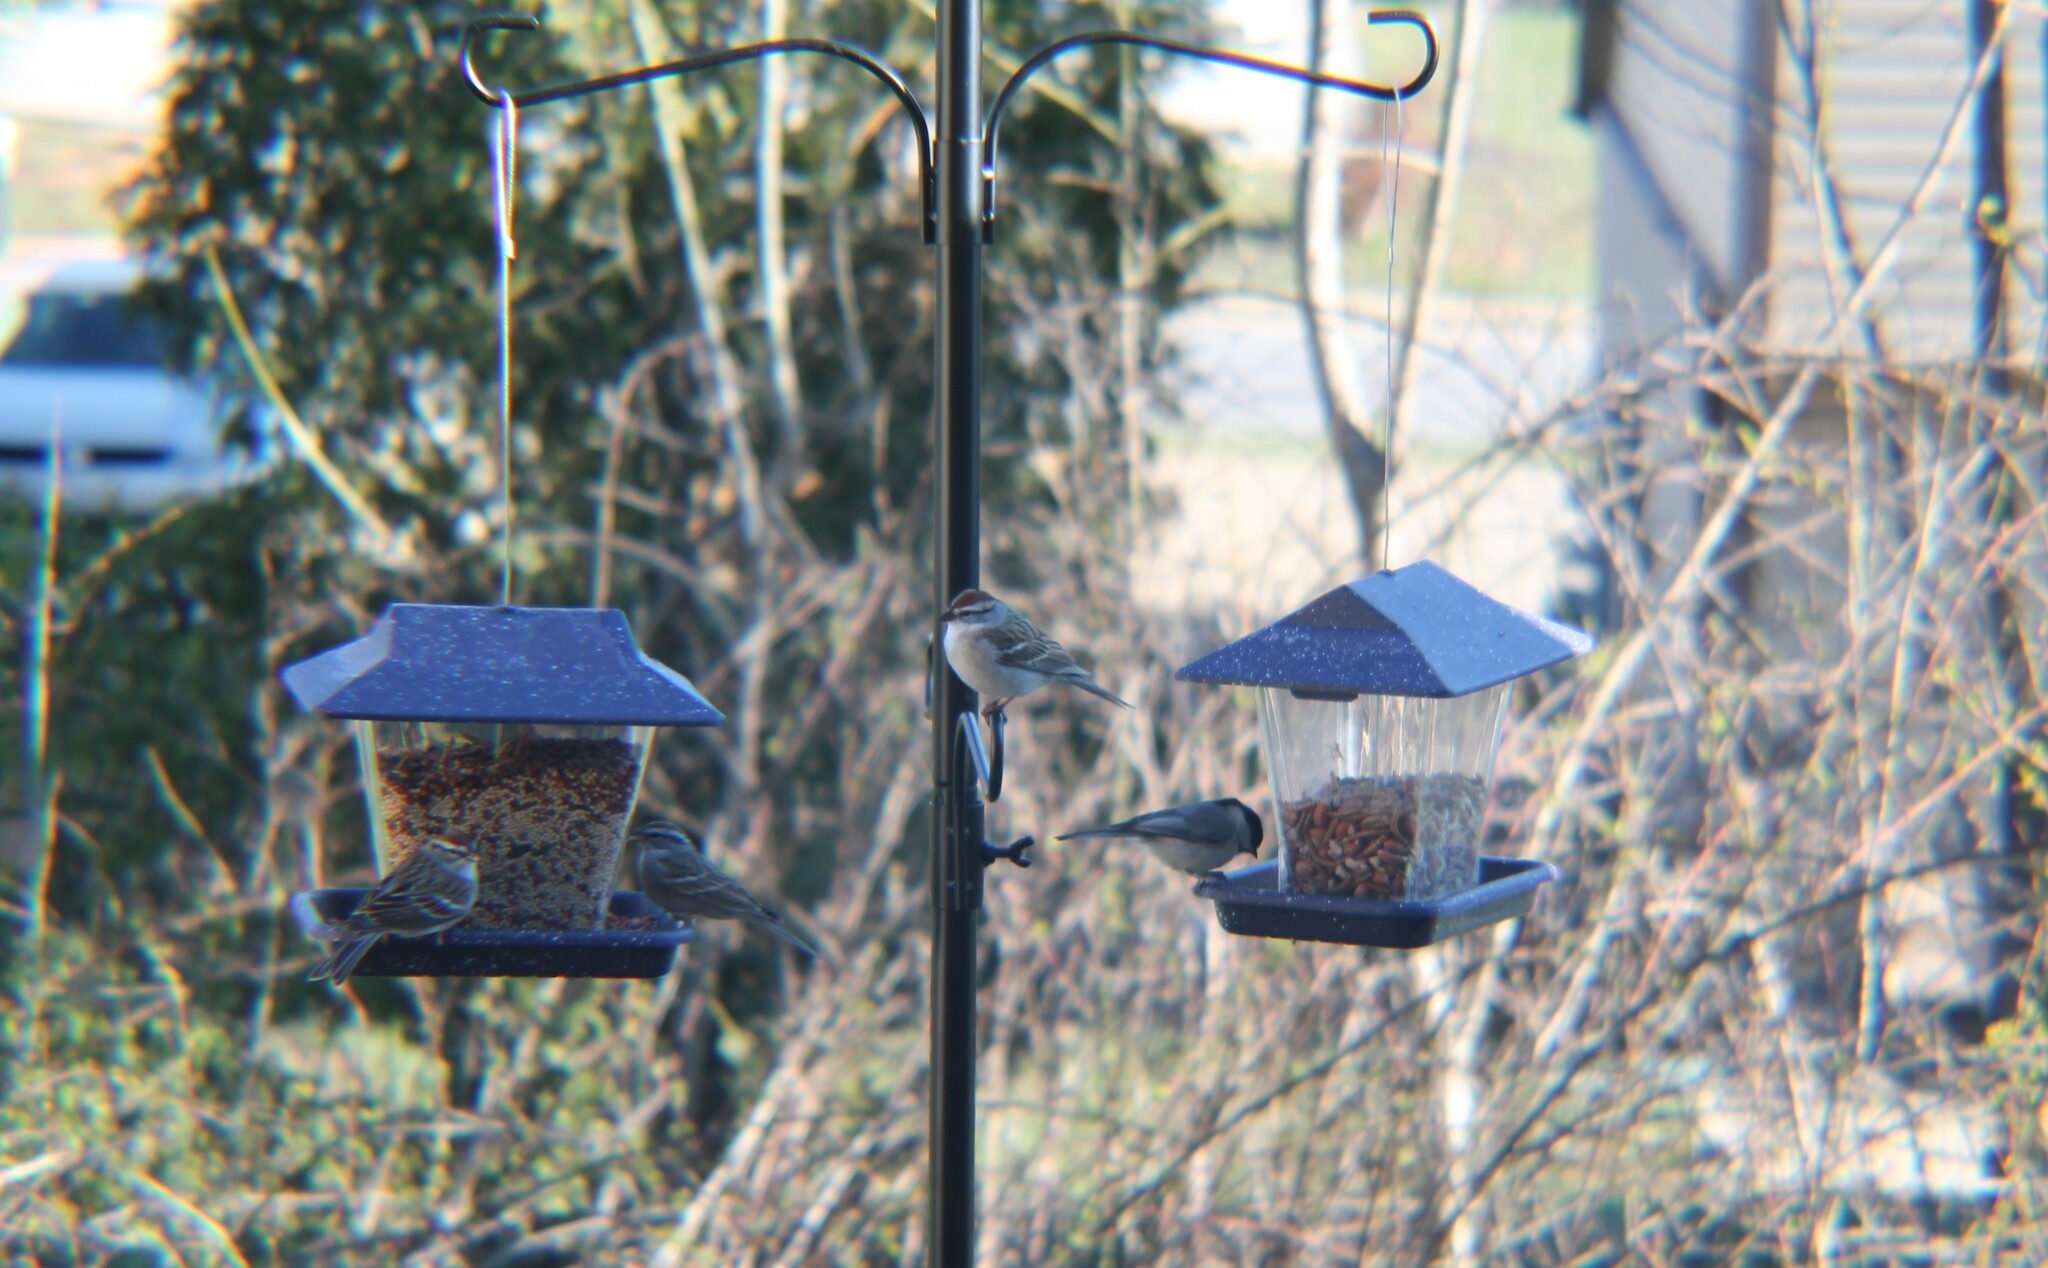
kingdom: Animalia
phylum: Chordata
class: Aves
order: Passeriformes
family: Passerellidae
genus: Spizella
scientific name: Spizella passerina
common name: Chipping sparrow
